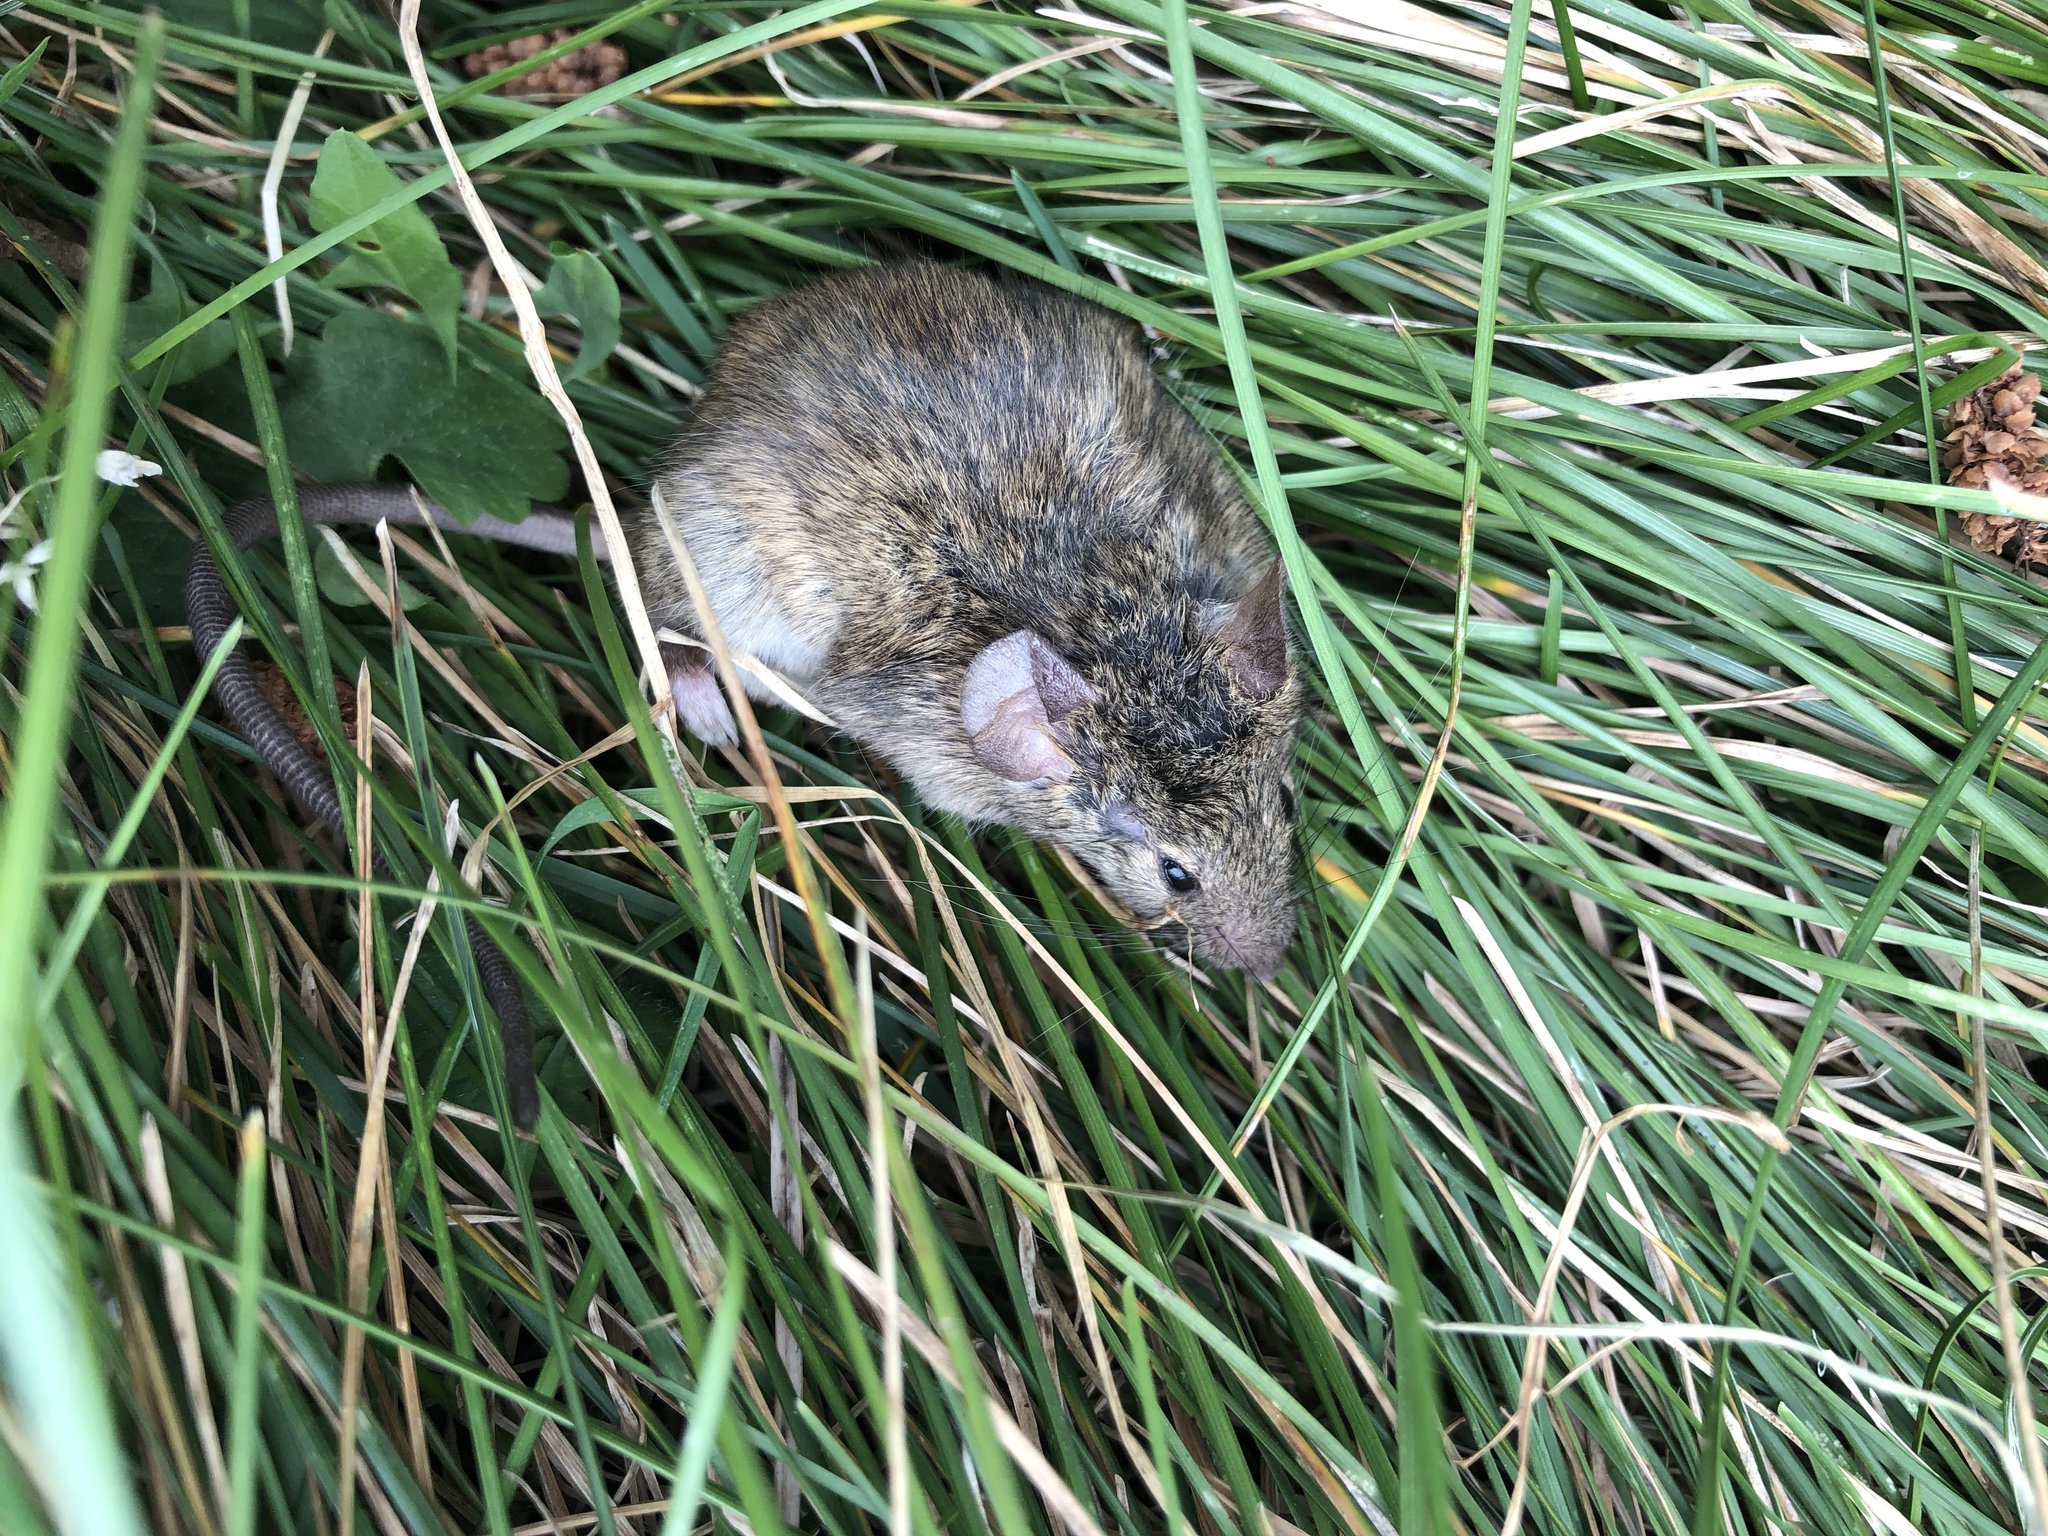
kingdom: Animalia
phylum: Chordata
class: Mammalia
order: Rodentia
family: Muridae
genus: Mus
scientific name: Mus musculus
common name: House mouse
